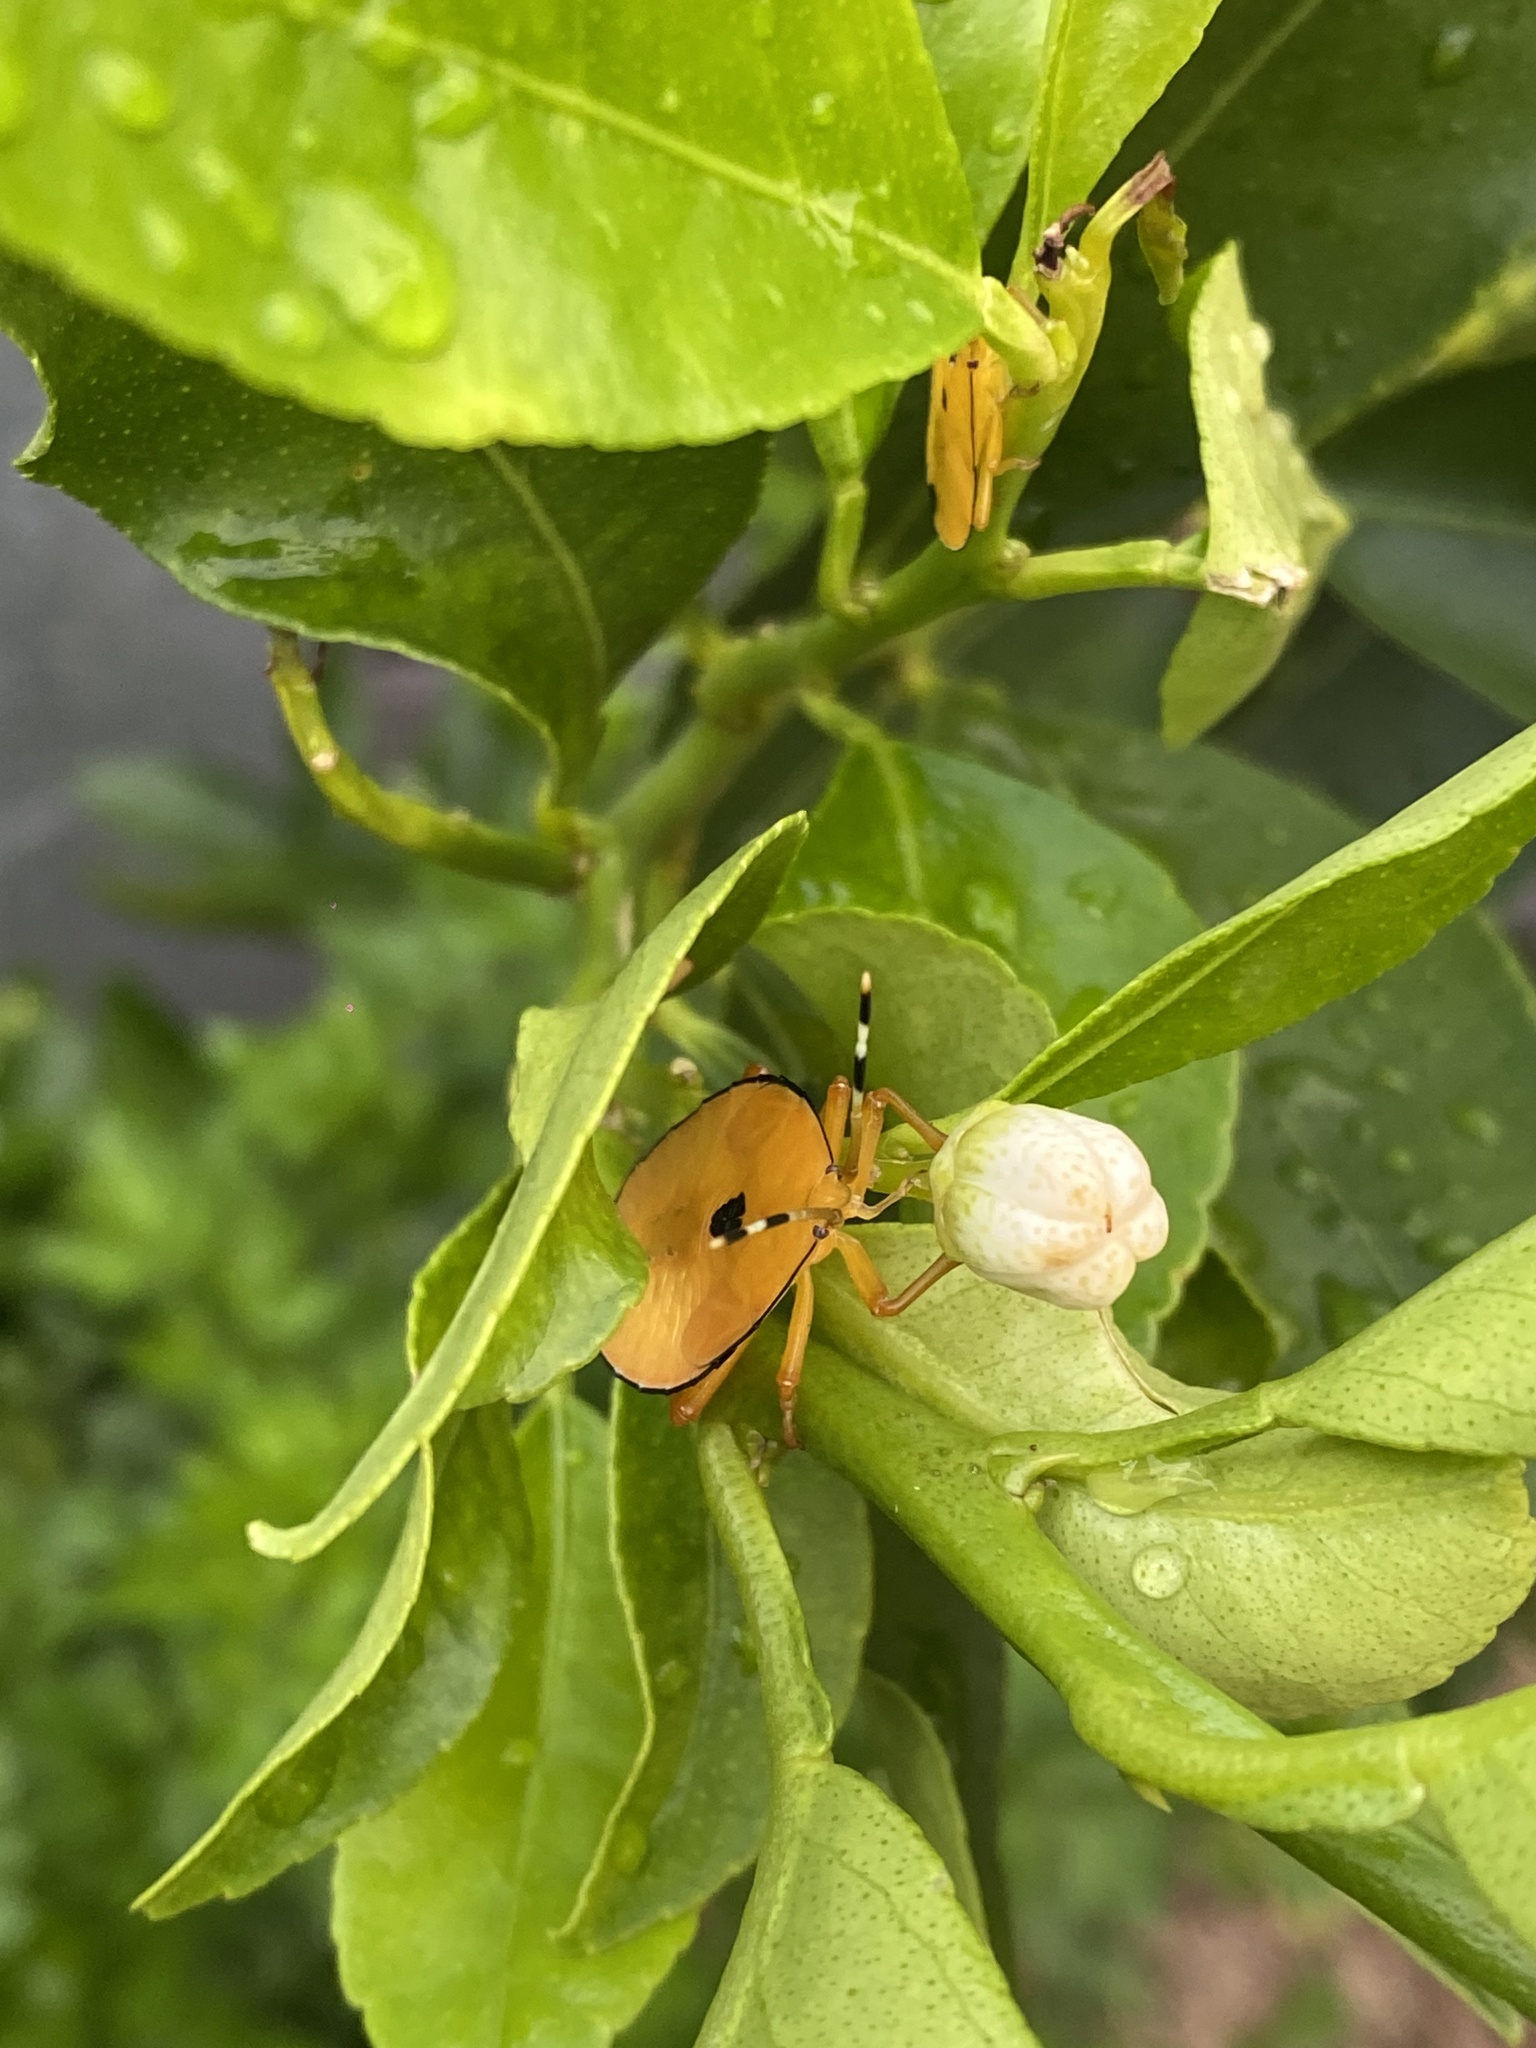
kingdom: Animalia
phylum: Arthropoda
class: Insecta
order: Hemiptera
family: Tessaratomidae
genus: Musgraveia
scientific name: Musgraveia sulciventris
